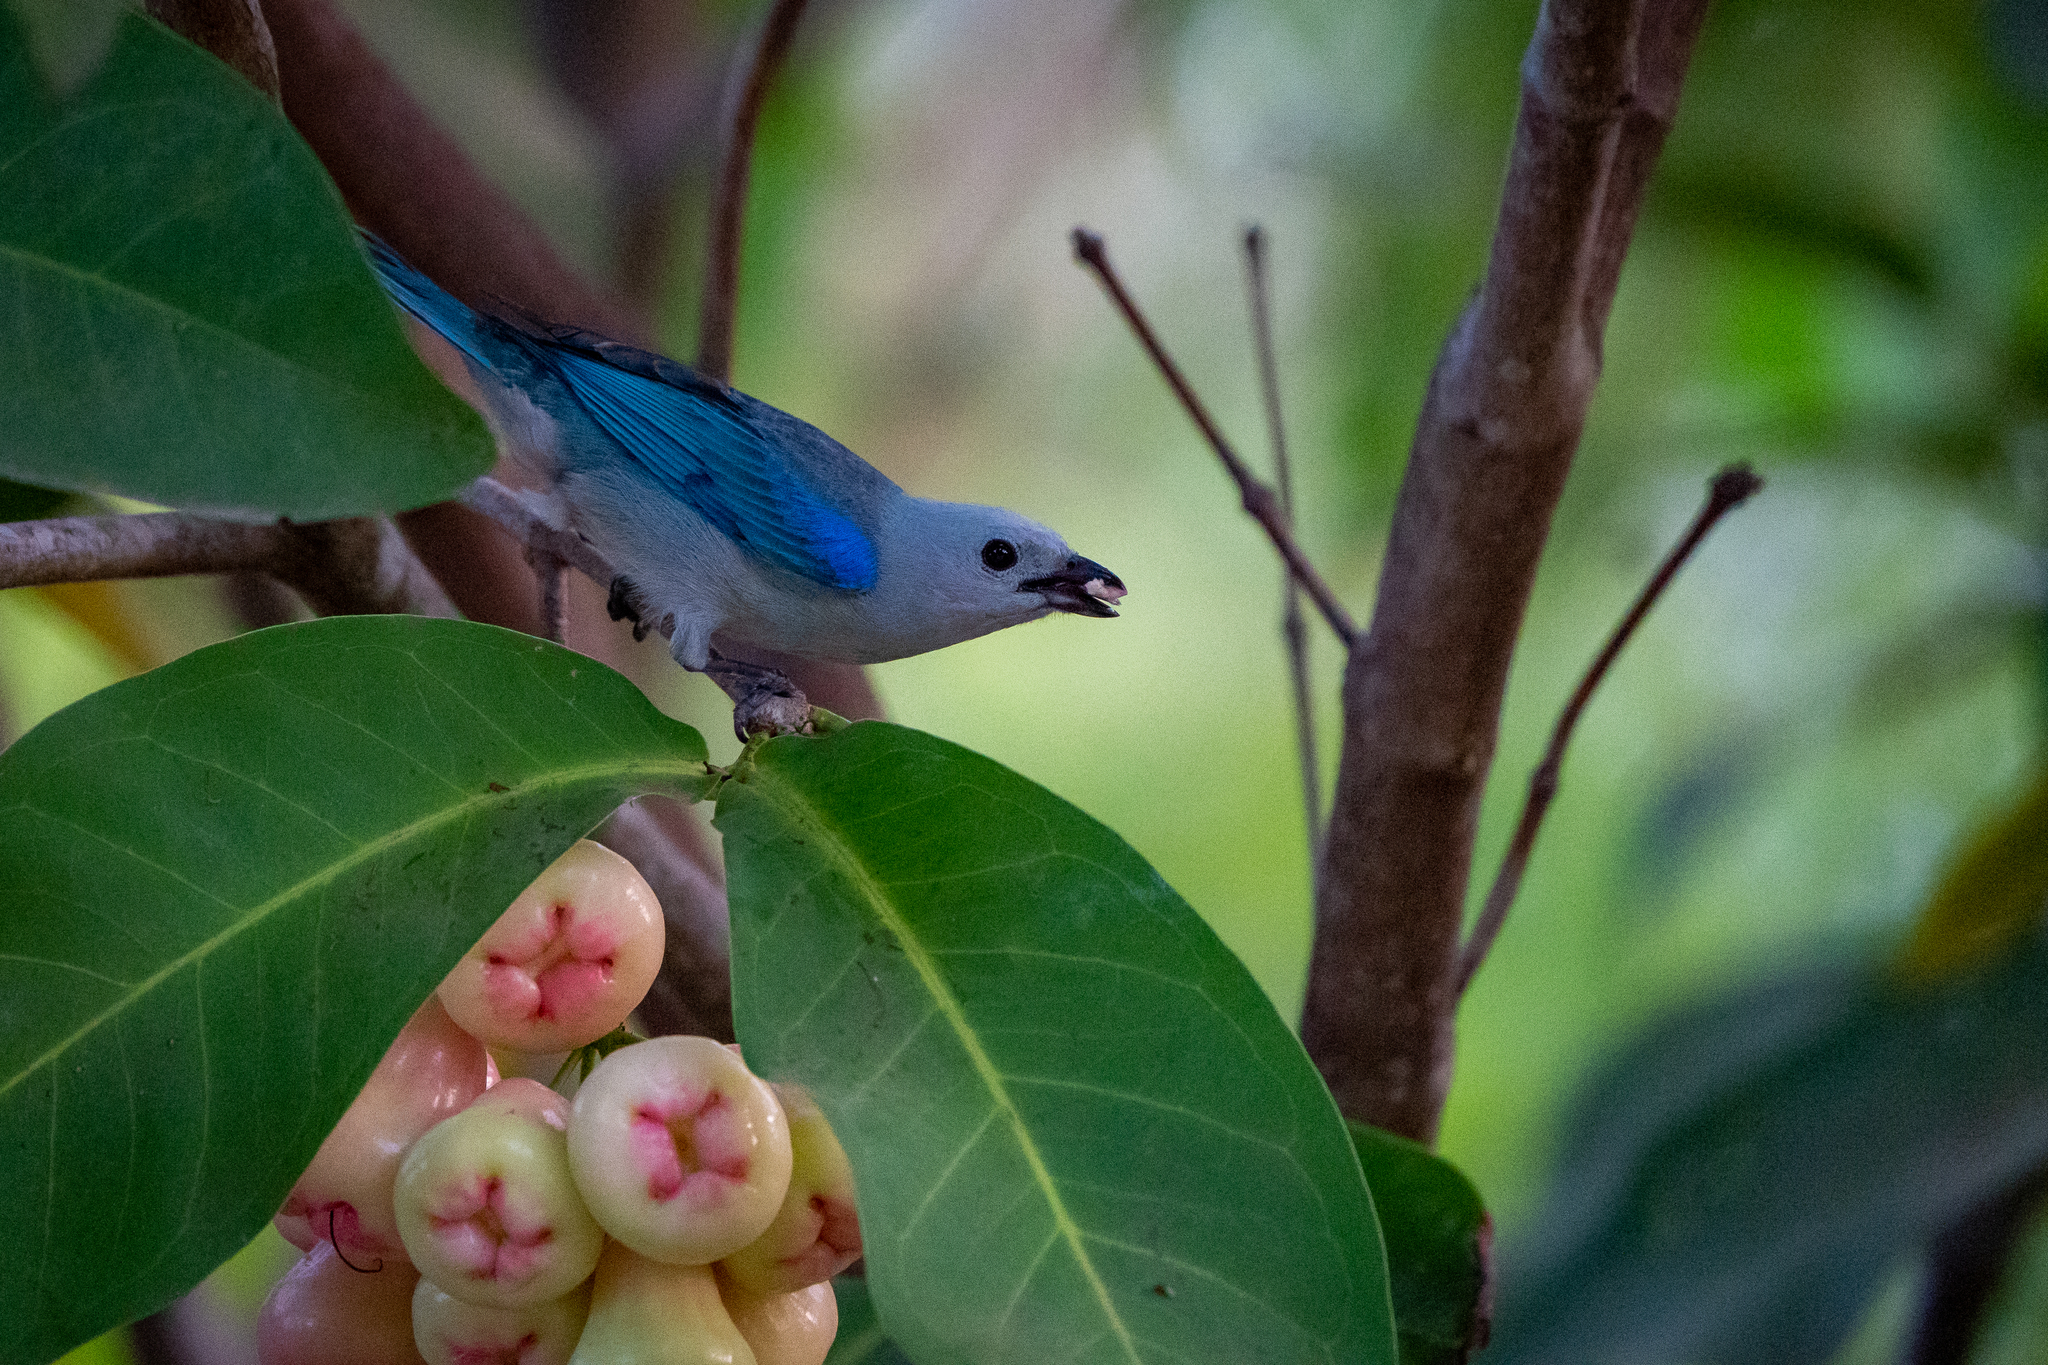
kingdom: Animalia
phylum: Chordata
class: Aves
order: Passeriformes
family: Thraupidae
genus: Thraupis
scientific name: Thraupis episcopus
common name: Blue-grey tanager
